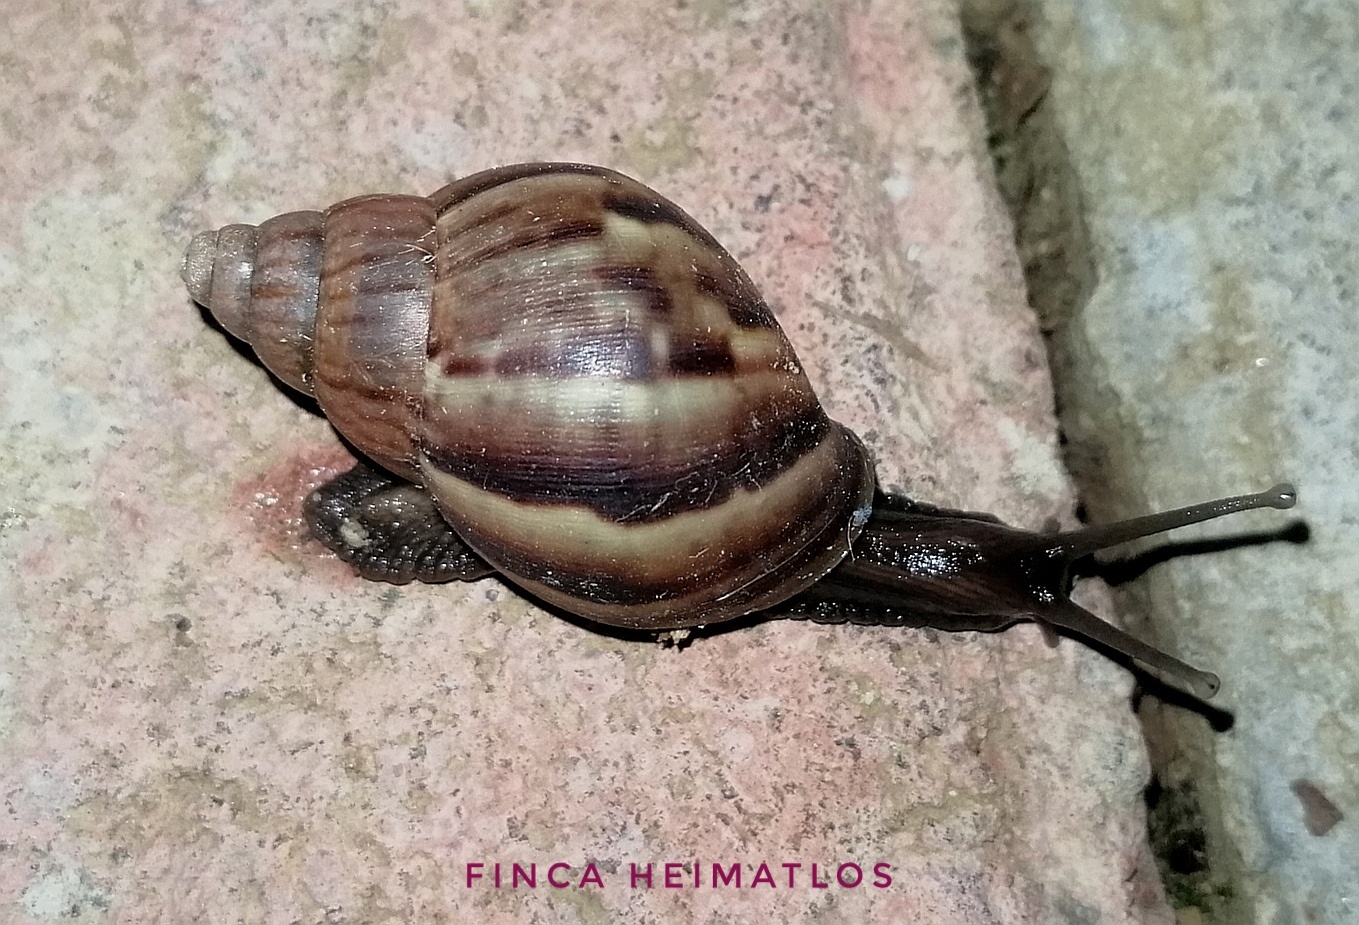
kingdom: Animalia
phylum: Mollusca
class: Gastropoda
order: Stylommatophora
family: Achatinidae
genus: Lissachatina
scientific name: Lissachatina fulica
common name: Giant african snail
